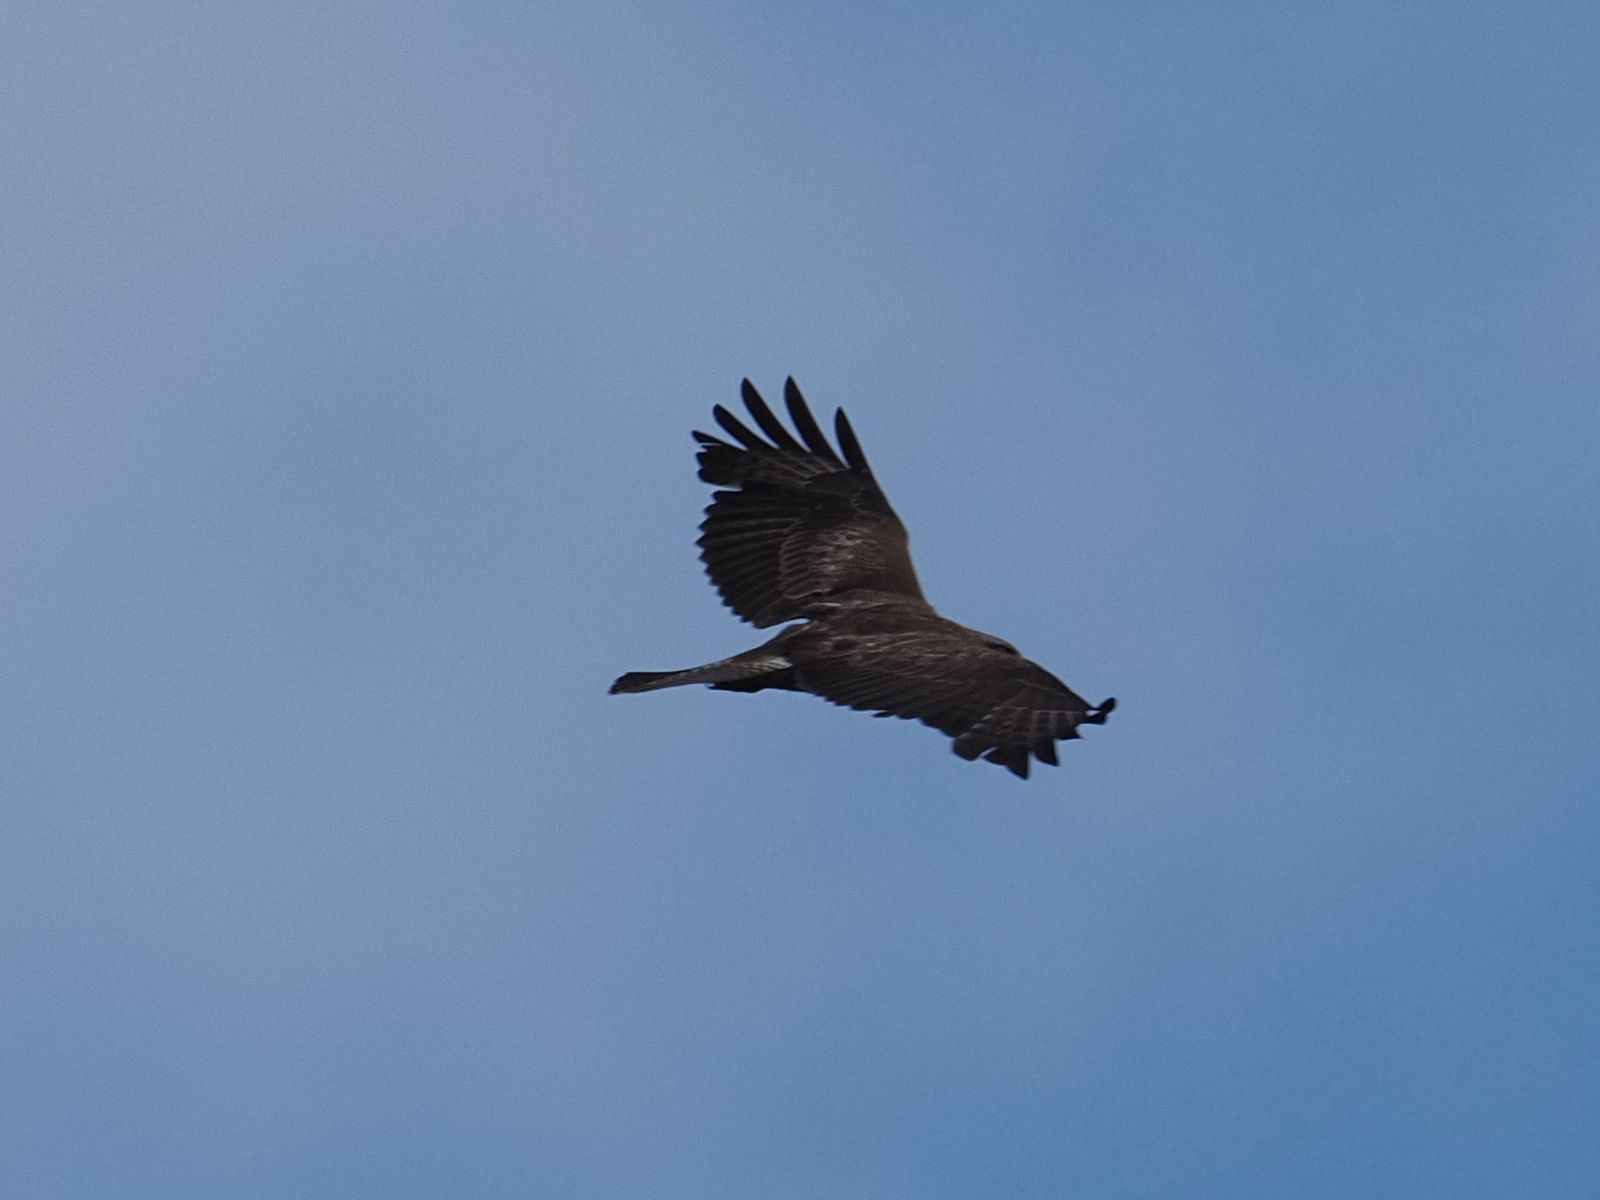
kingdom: Animalia
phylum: Chordata
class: Aves
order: Accipitriformes
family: Accipitridae
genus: Buteo
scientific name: Buteo buteo
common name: Common buzzard
